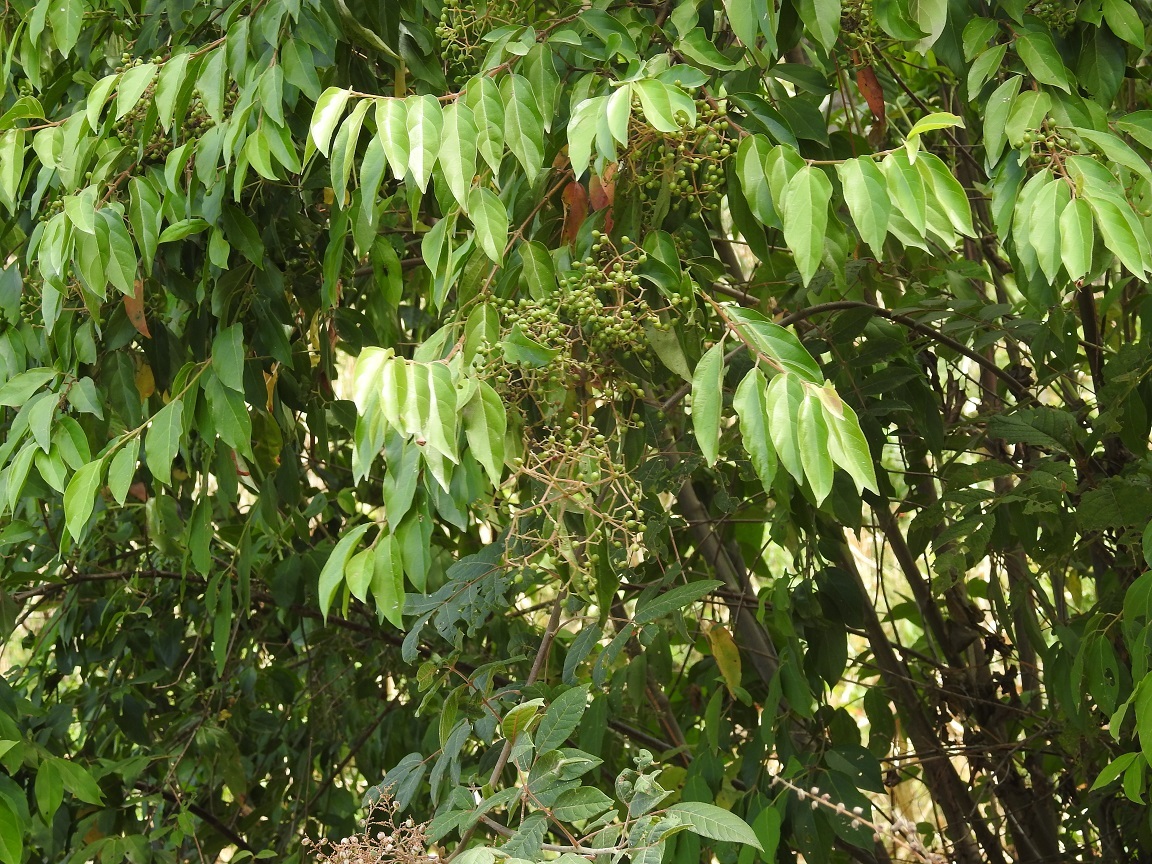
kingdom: Plantae
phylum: Tracheophyta
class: Magnoliopsida
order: Dipsacales
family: Viburnaceae
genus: Viburnum
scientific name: Viburnum hartwegii
